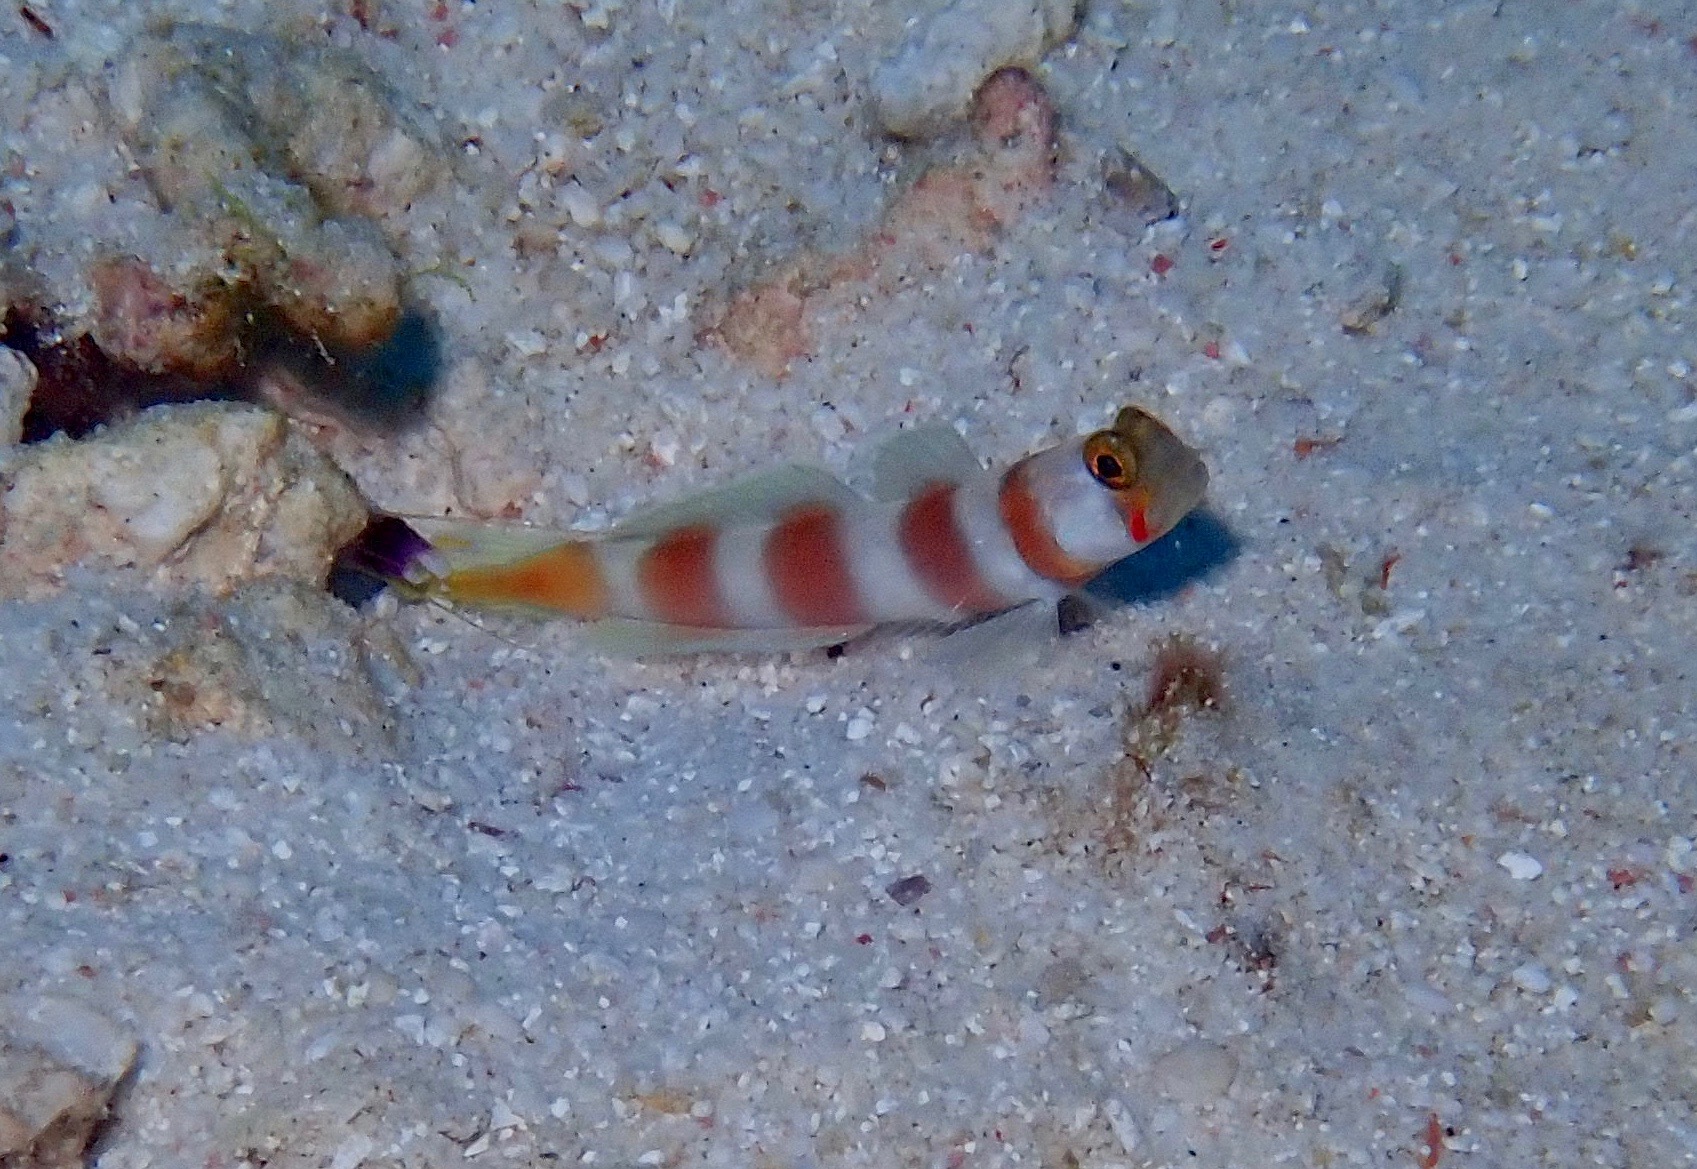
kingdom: Animalia
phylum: Chordata
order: Perciformes
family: Gobiidae
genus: Amblyeleotris
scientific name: Amblyeleotris aurora
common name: Pinkbar goby
